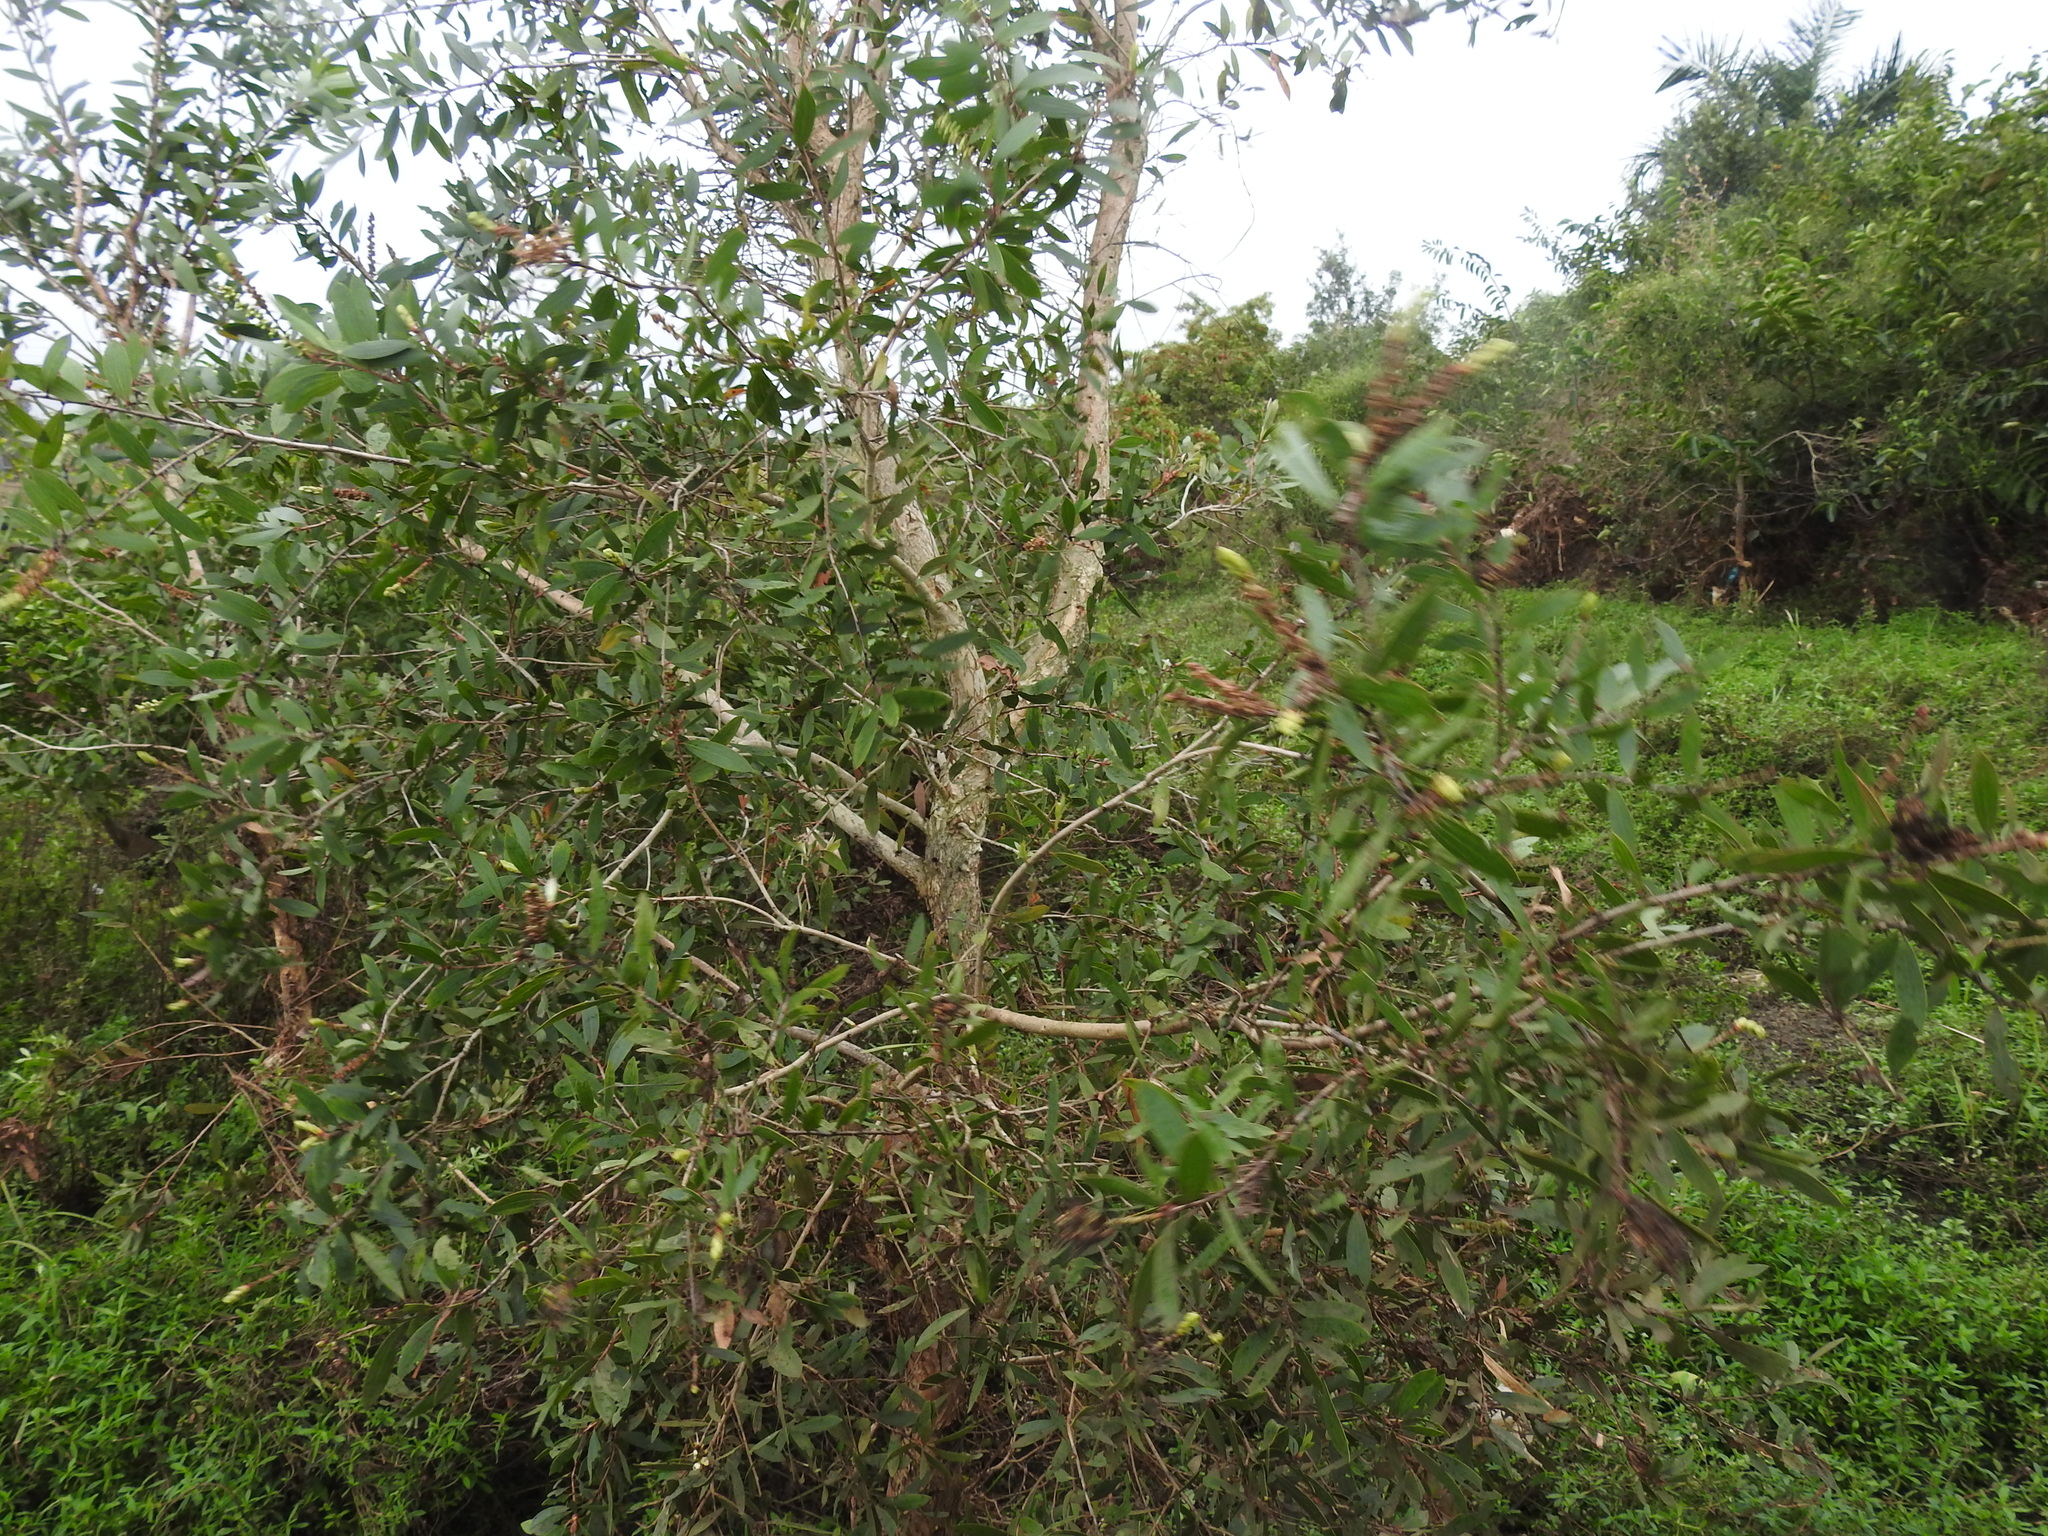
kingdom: Plantae
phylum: Tracheophyta
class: Magnoliopsida
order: Myrtales
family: Myrtaceae
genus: Melaleuca
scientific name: Melaleuca quinquenervia
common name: Punktree
